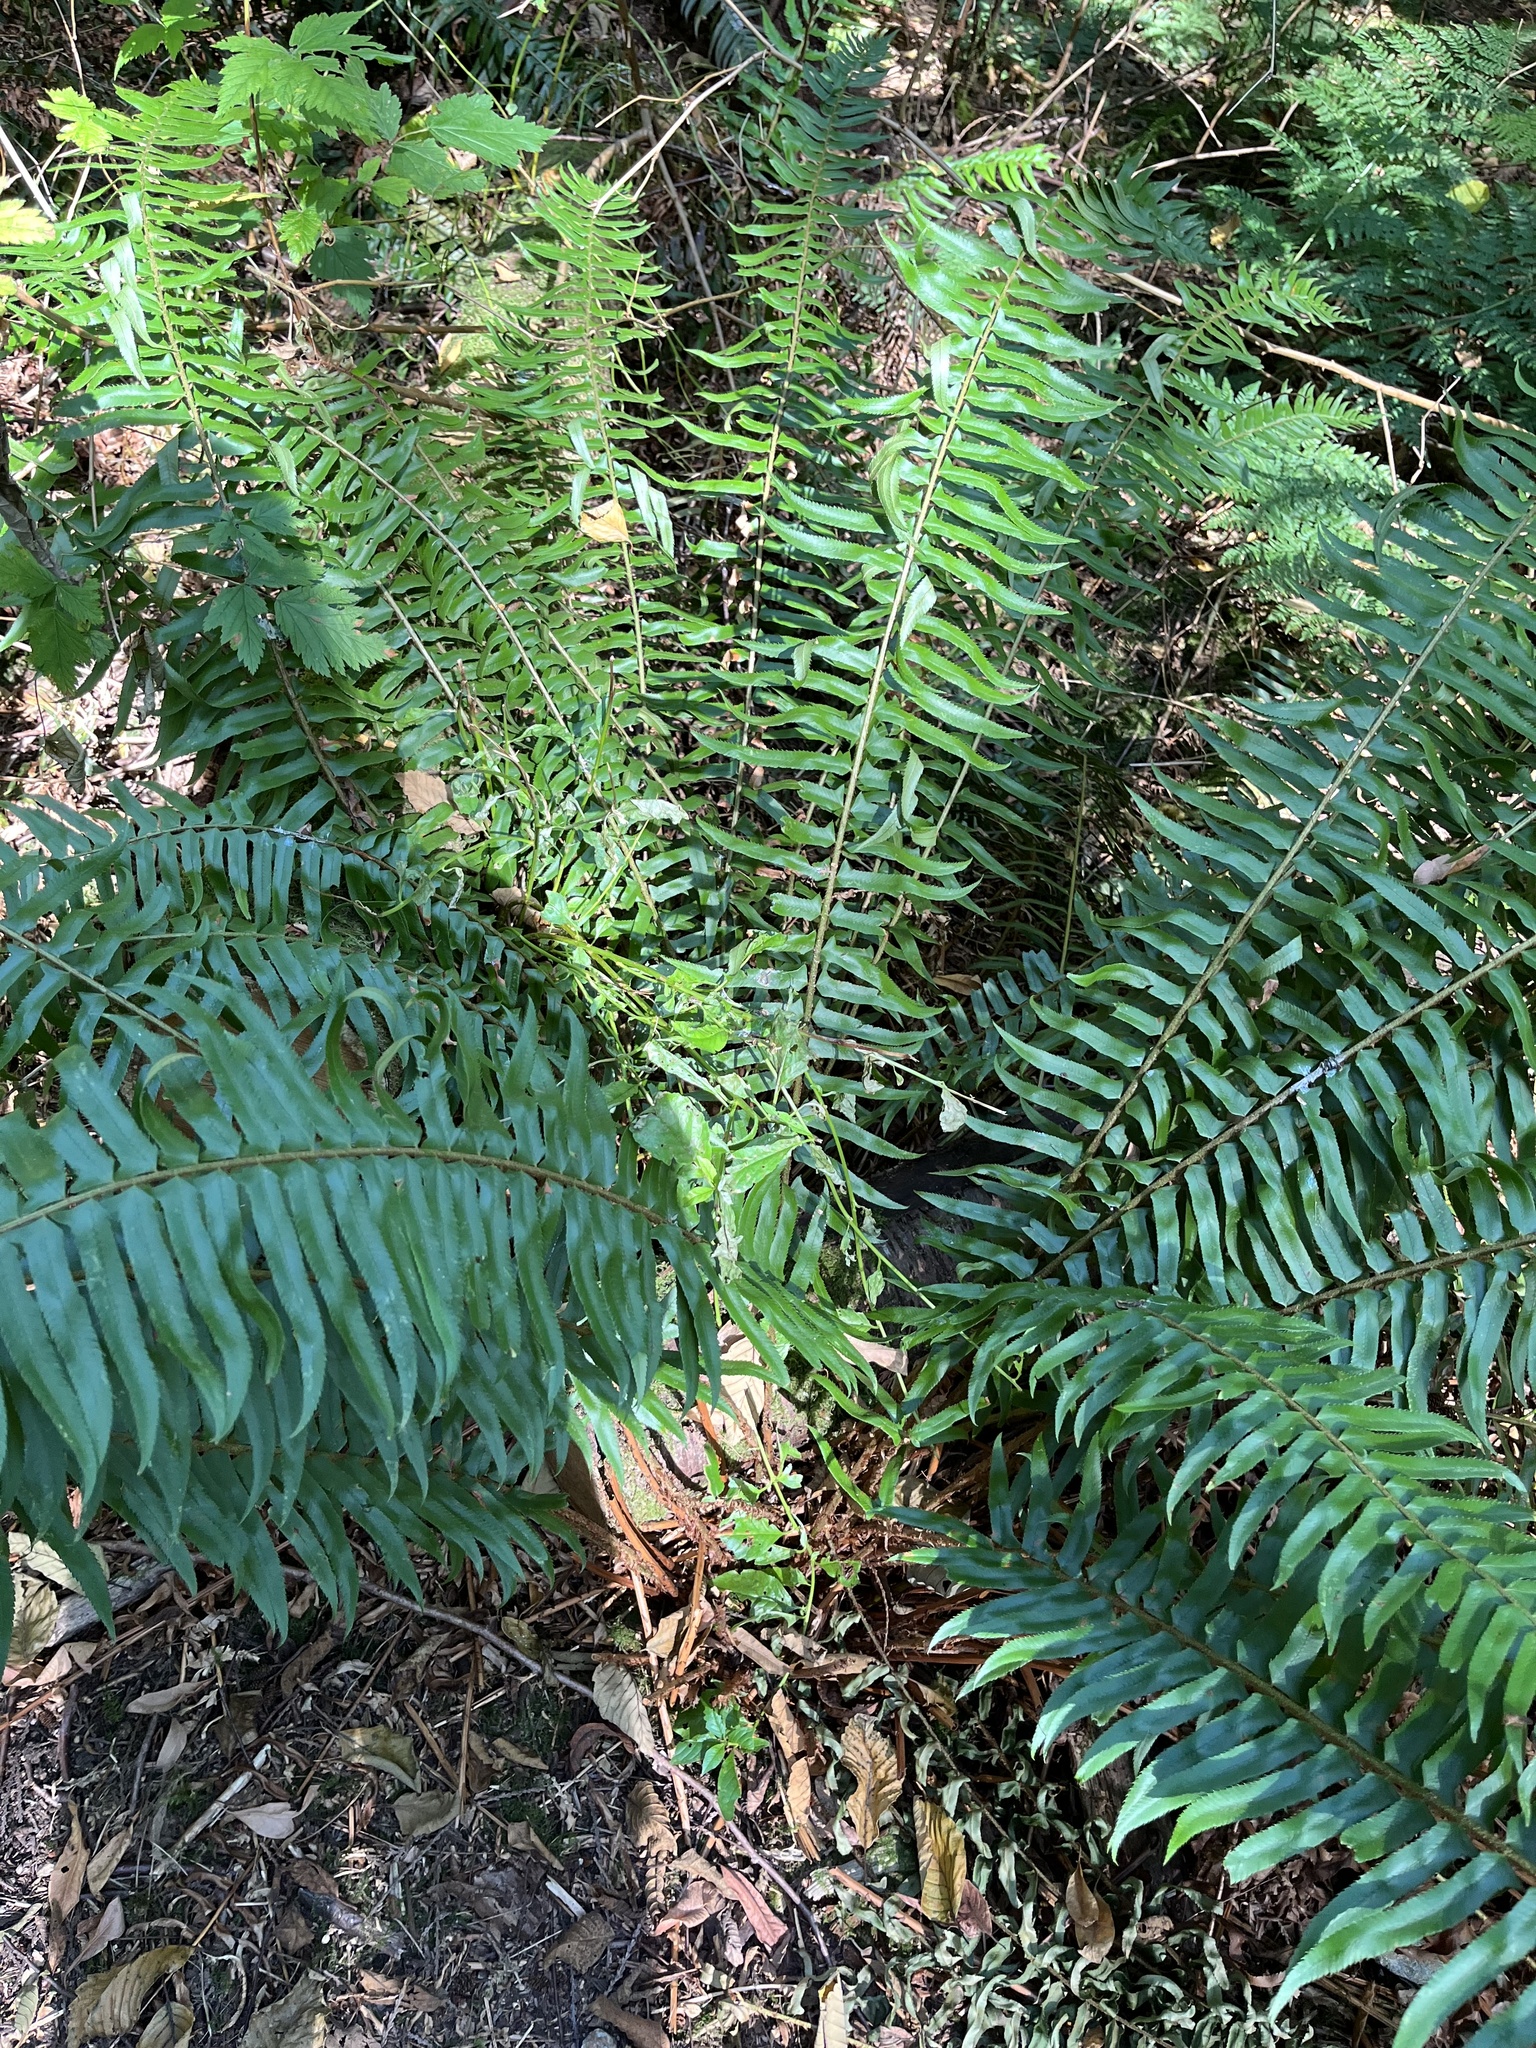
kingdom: Plantae
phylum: Tracheophyta
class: Polypodiopsida
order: Polypodiales
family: Dryopteridaceae
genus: Polystichum
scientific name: Polystichum munitum
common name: Western sword-fern
